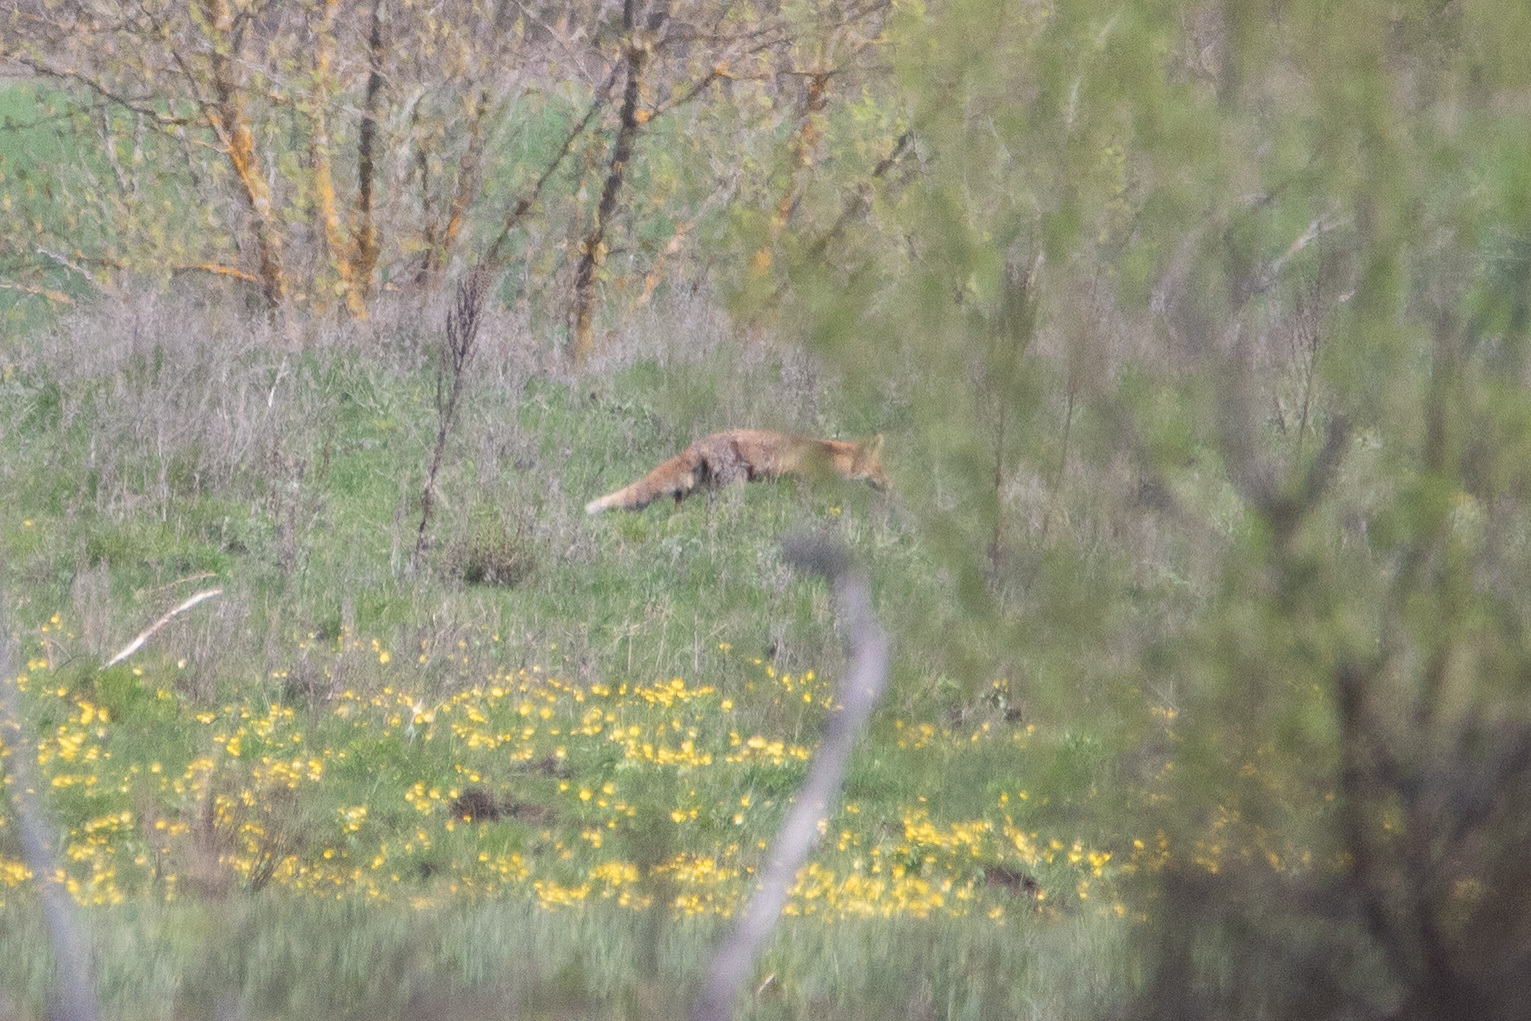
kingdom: Animalia
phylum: Chordata
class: Mammalia
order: Carnivora
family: Canidae
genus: Vulpes
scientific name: Vulpes vulpes
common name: Red fox
